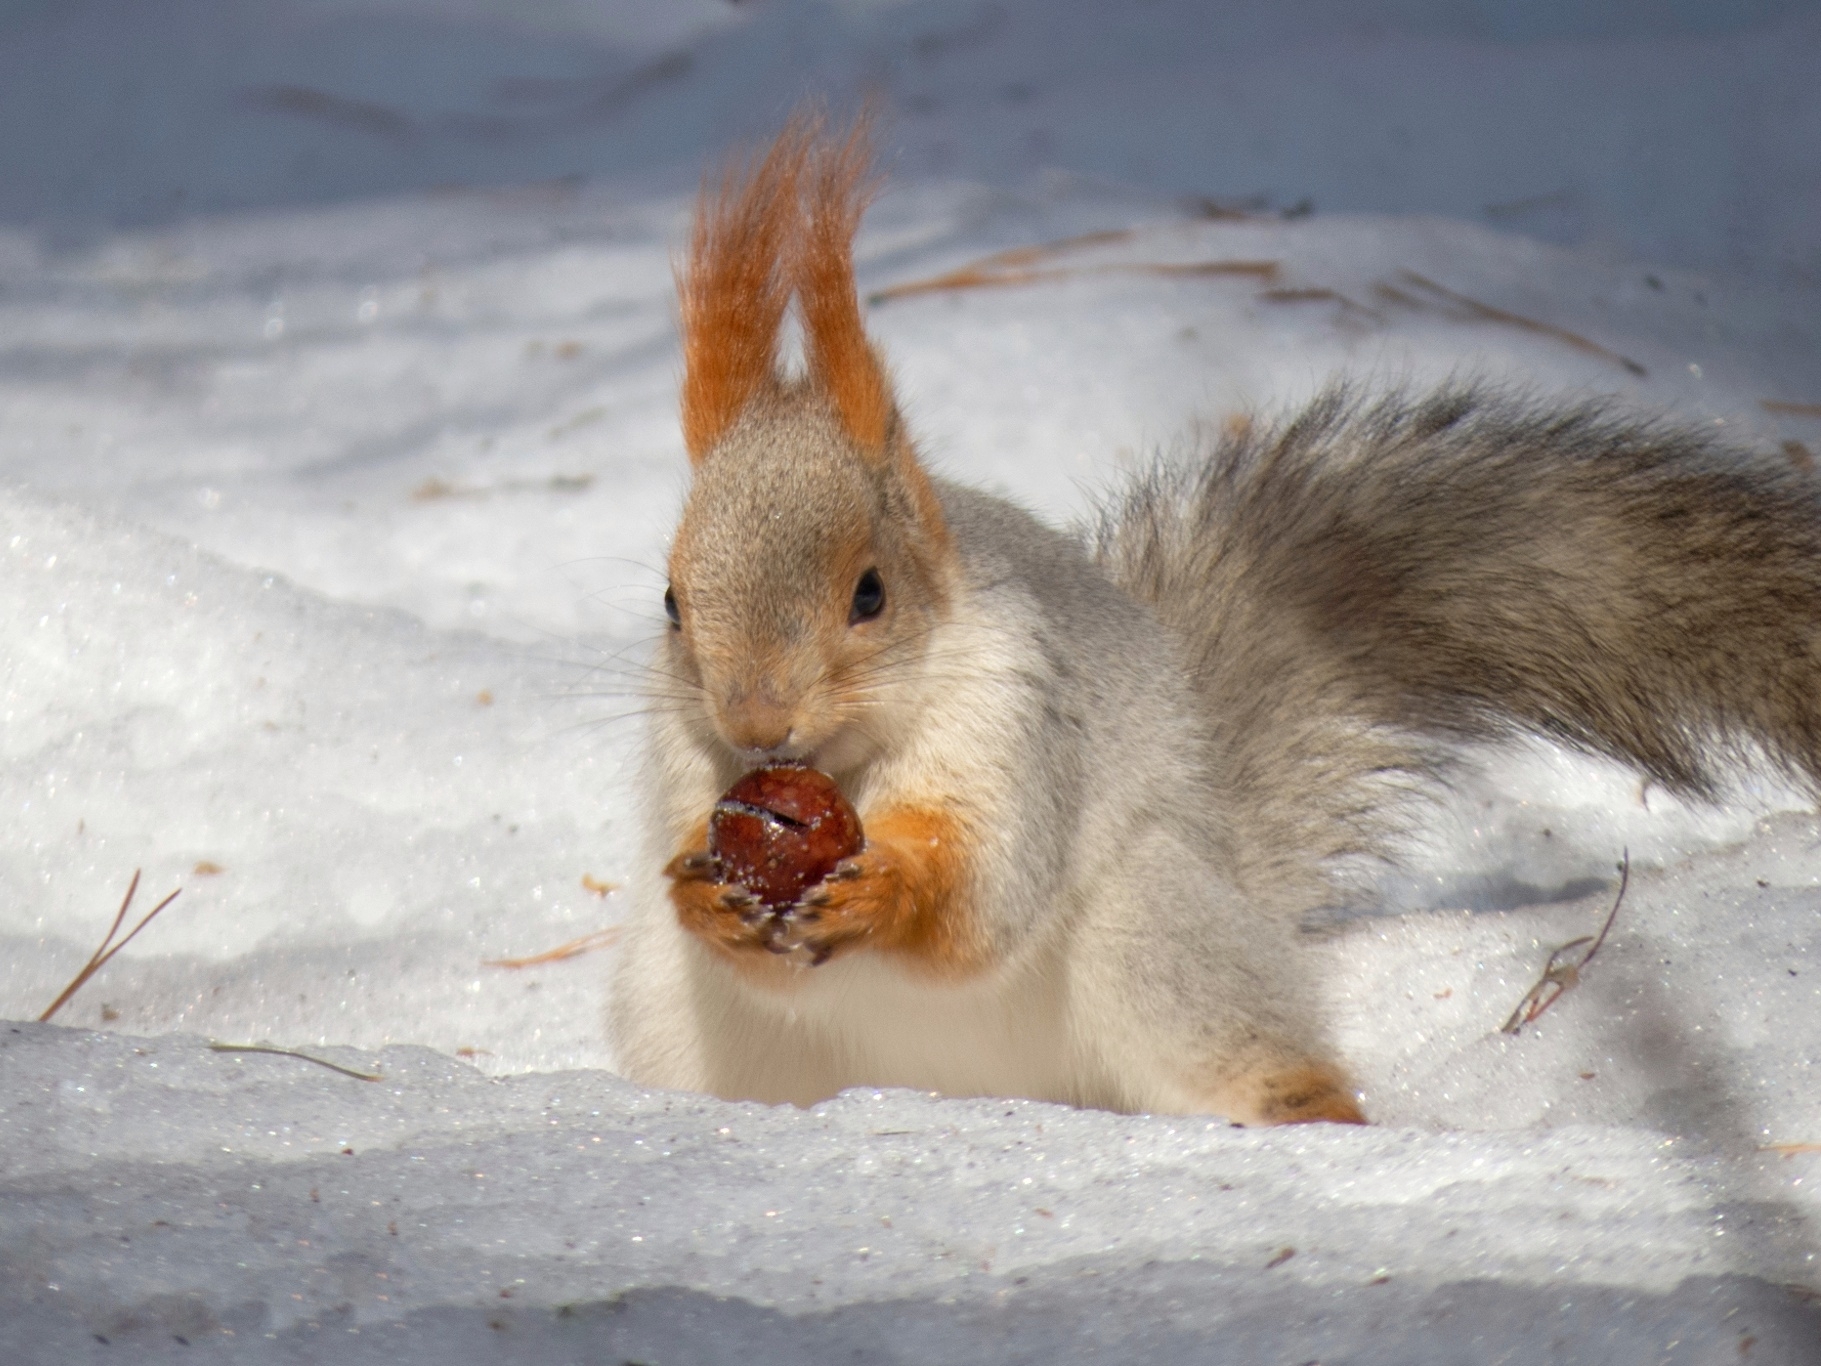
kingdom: Animalia
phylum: Chordata
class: Mammalia
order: Rodentia
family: Sciuridae
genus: Sciurus
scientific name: Sciurus vulgaris
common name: Eurasian red squirrel
